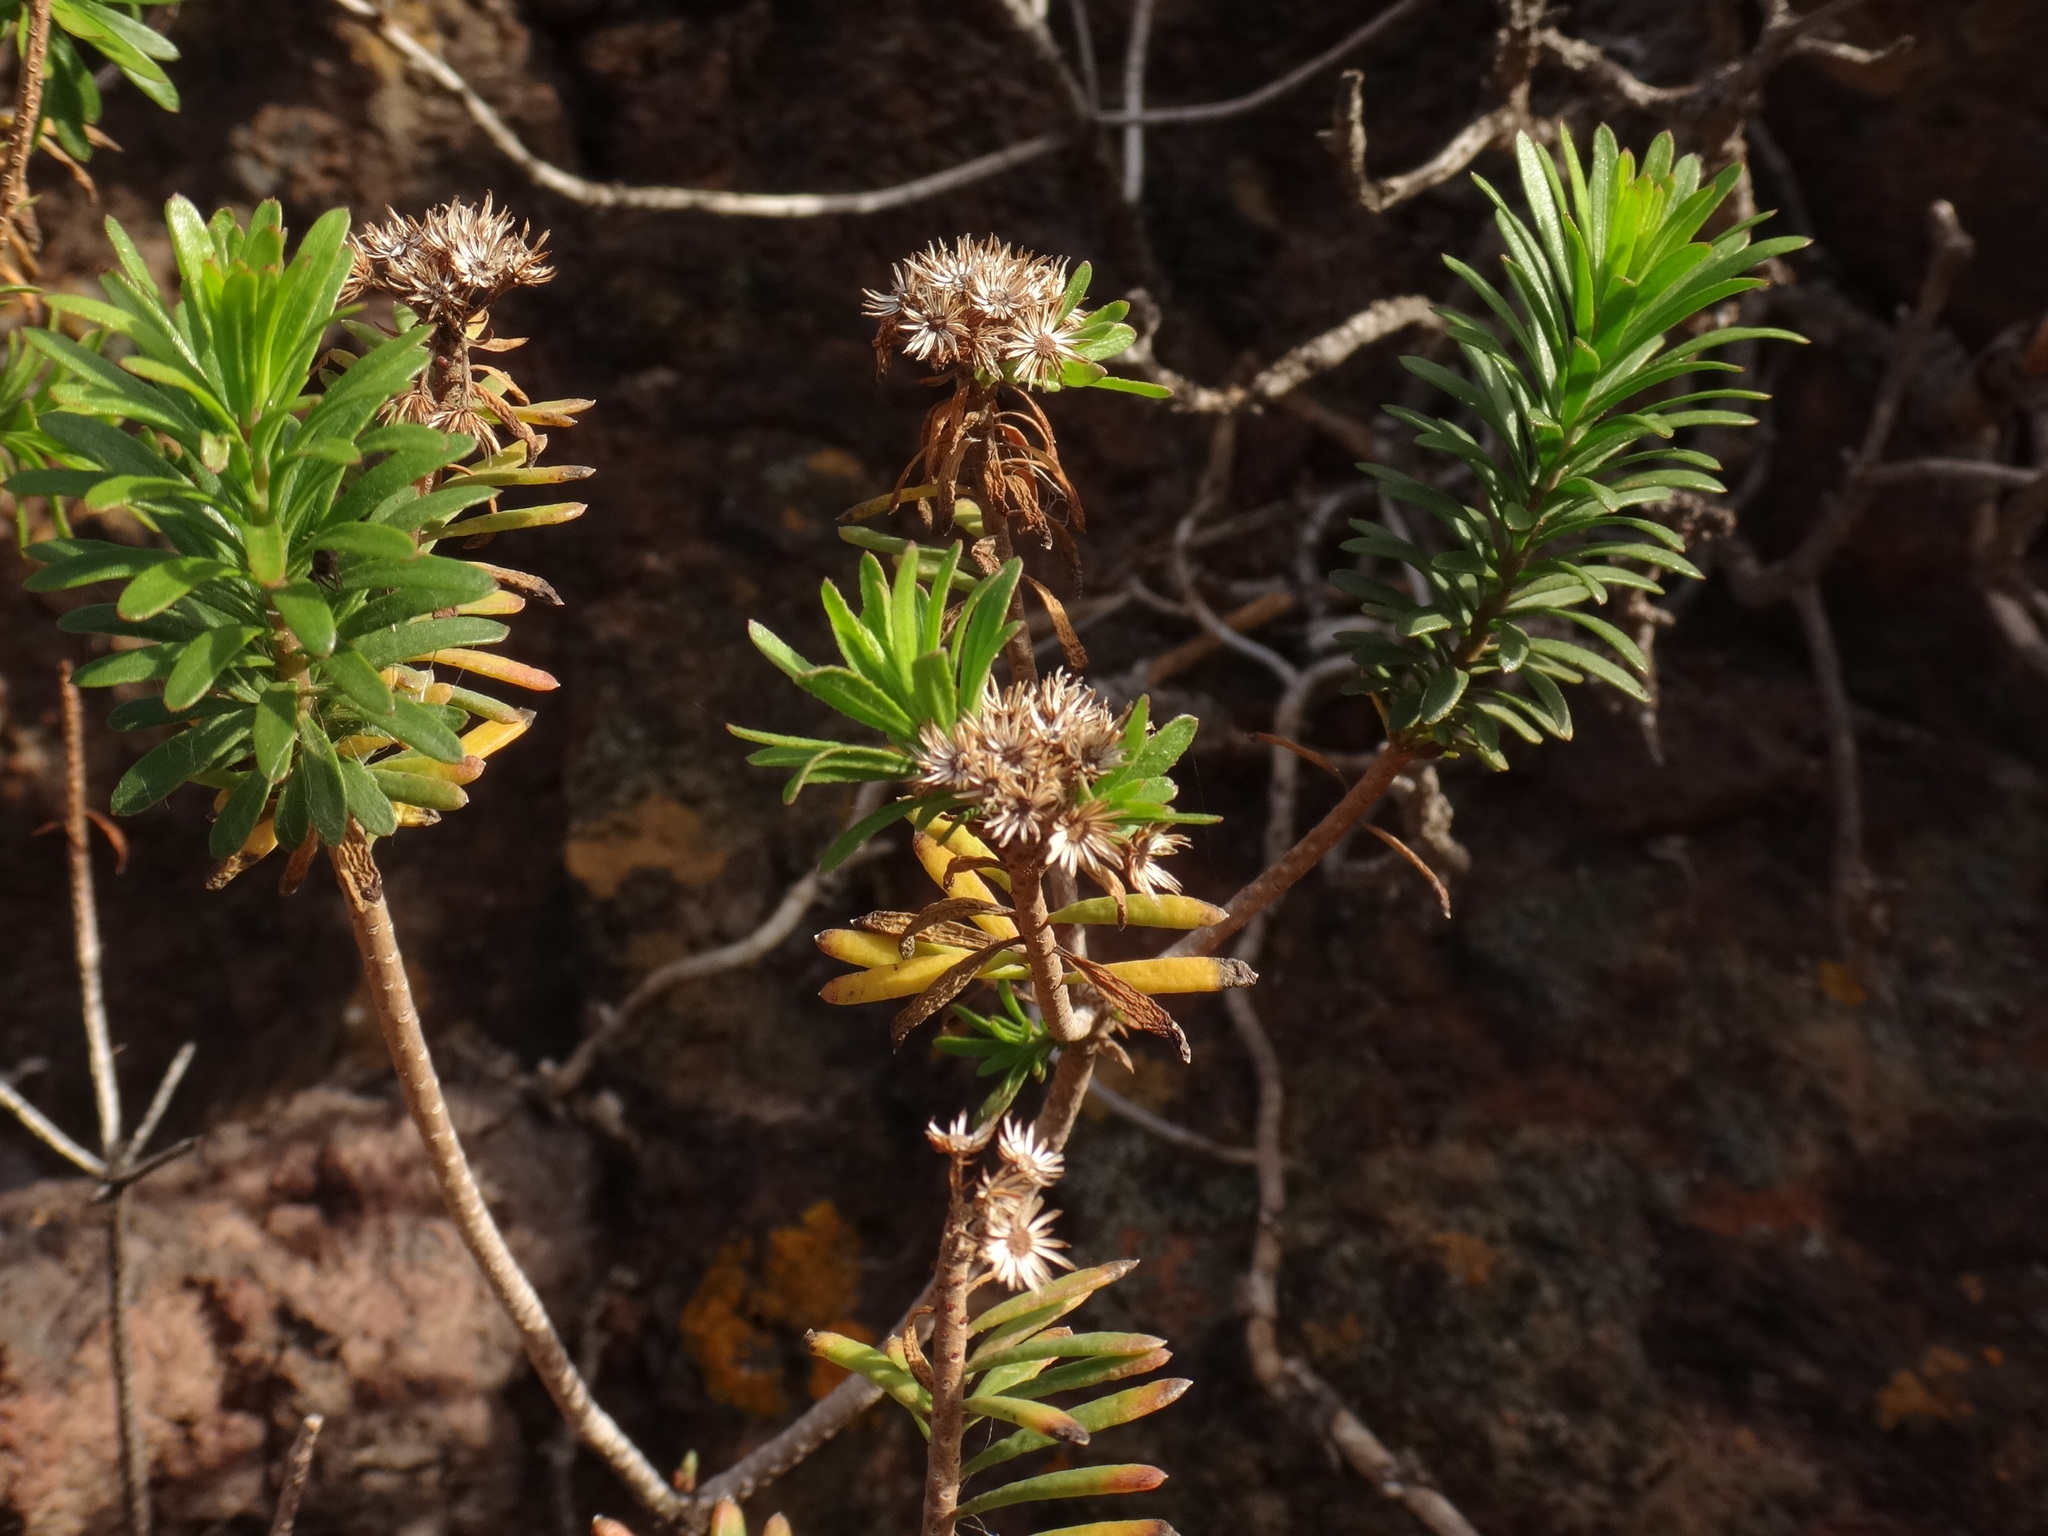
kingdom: Plantae
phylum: Tracheophyta
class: Magnoliopsida
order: Asterales
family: Asteraceae
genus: Allagopappus
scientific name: Allagopappus canariensis
